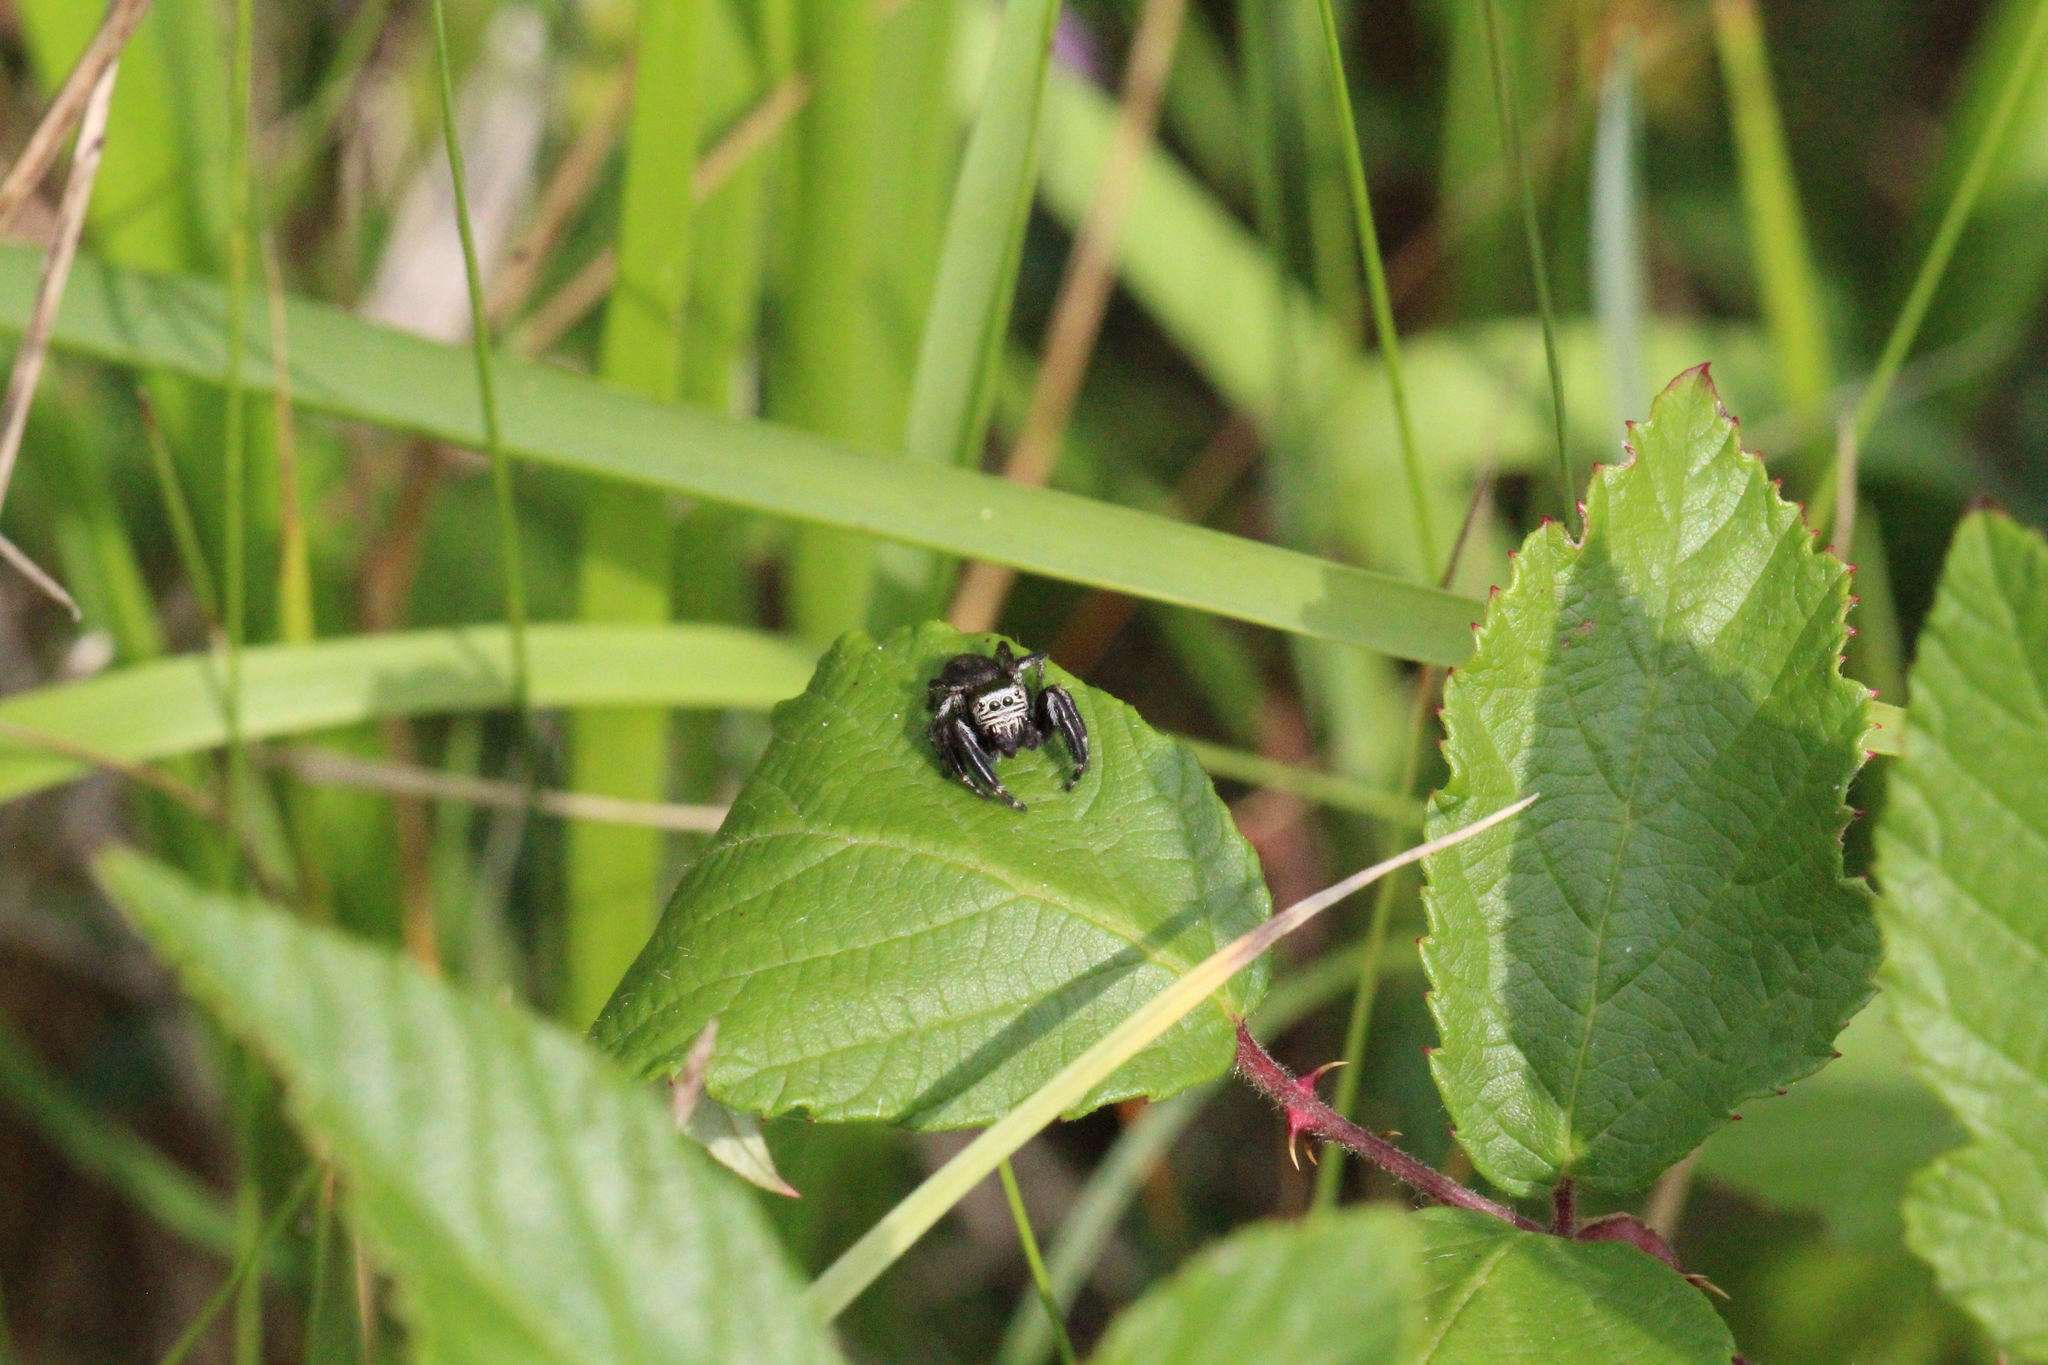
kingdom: Animalia
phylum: Arthropoda
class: Arachnida
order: Araneae
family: Salticidae
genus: Evarcha
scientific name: Evarcha arcuata
